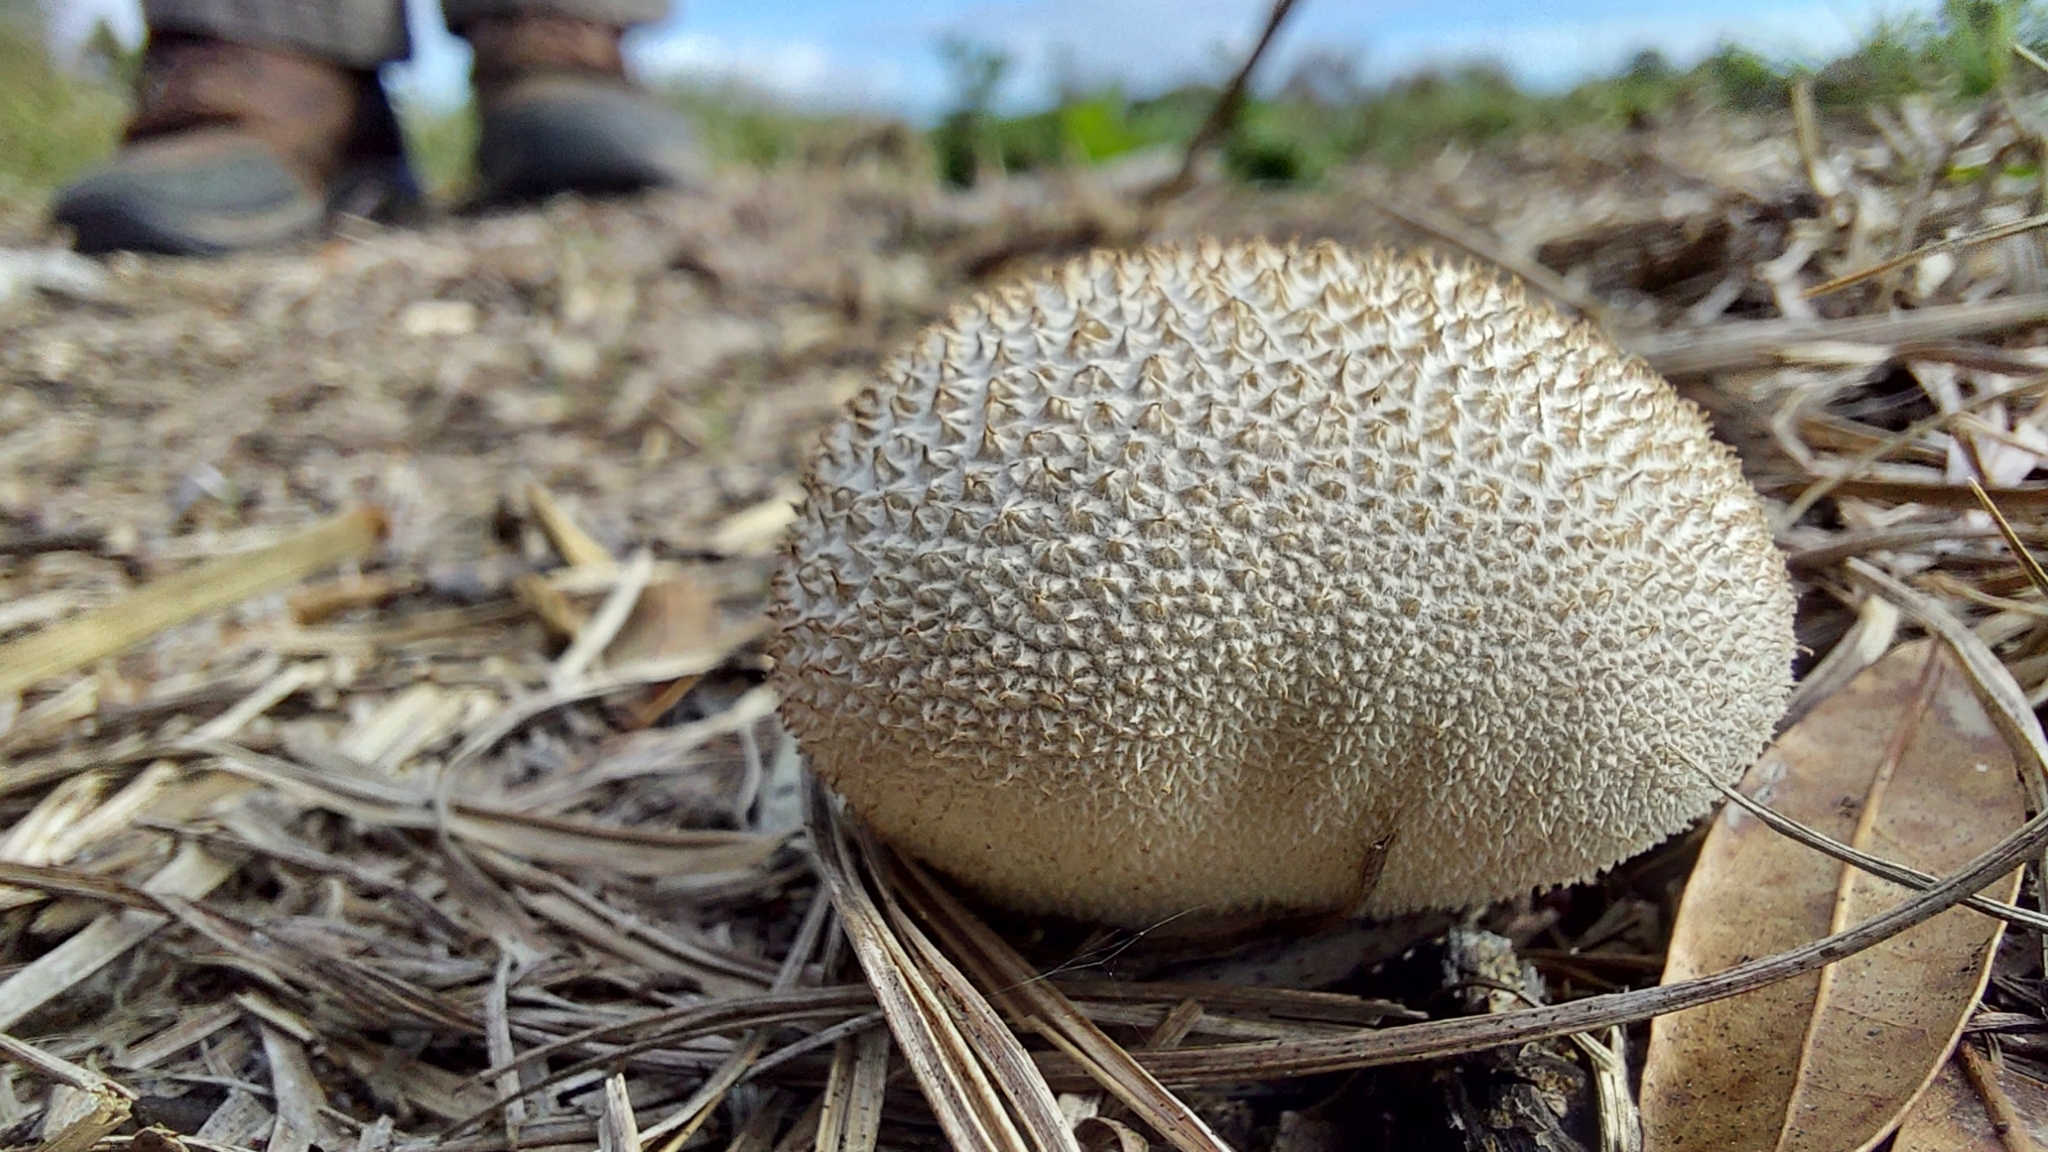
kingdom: Fungi
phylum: Basidiomycota
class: Agaricomycetes
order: Agaricales
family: Agaricaceae
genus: Lycoperdon
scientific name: Lycoperdon marginatum
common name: Peeling puffball
